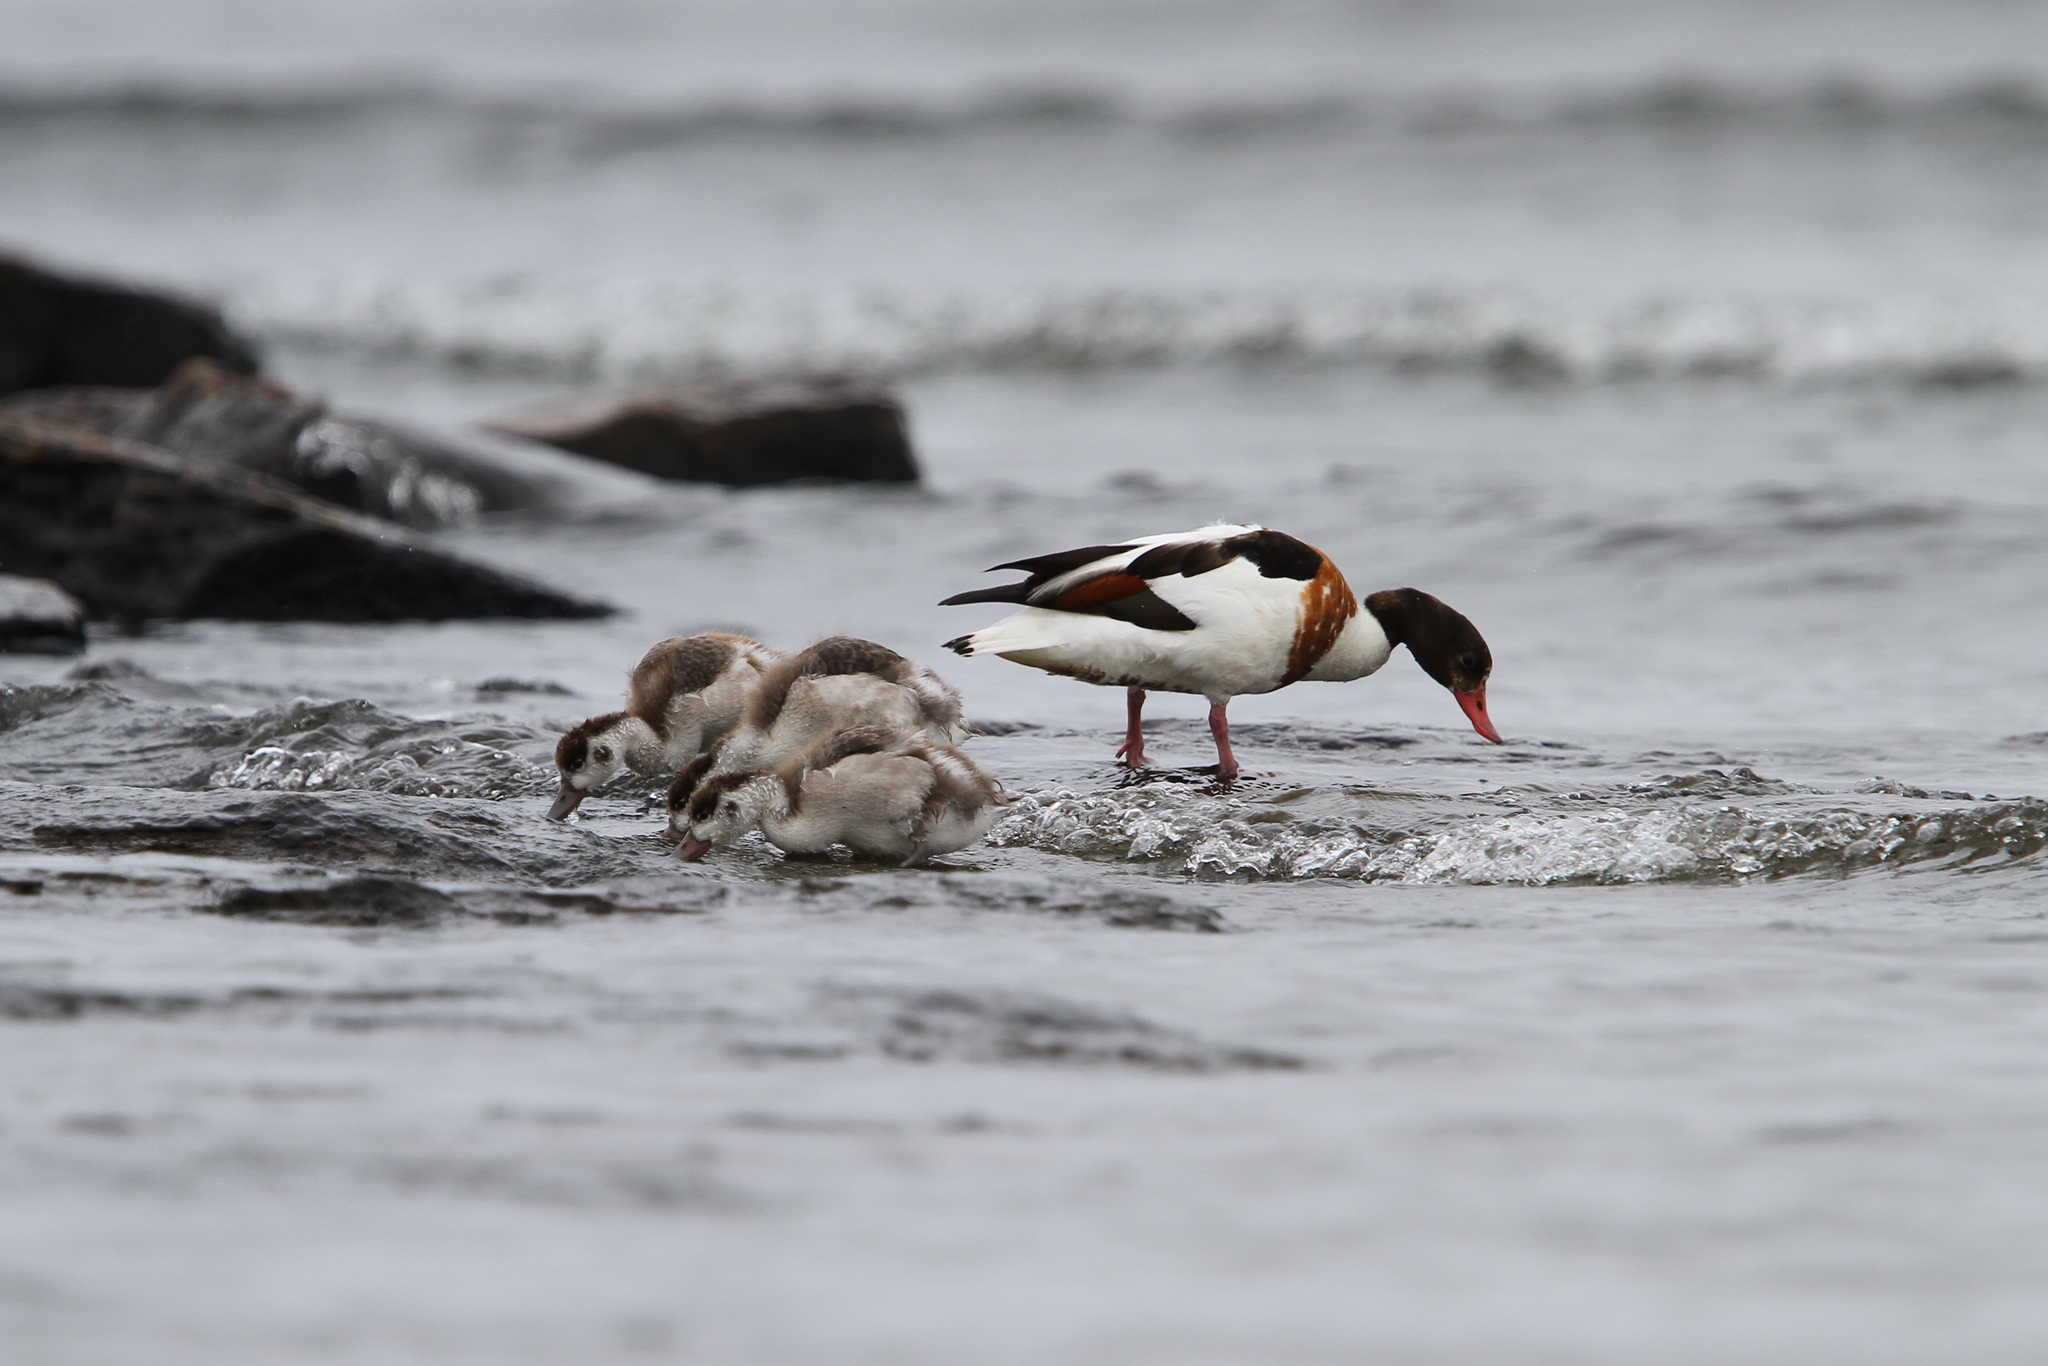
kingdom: Animalia
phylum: Chordata
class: Aves
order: Anseriformes
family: Anatidae
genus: Tadorna
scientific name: Tadorna tadorna
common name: Common shelduck
